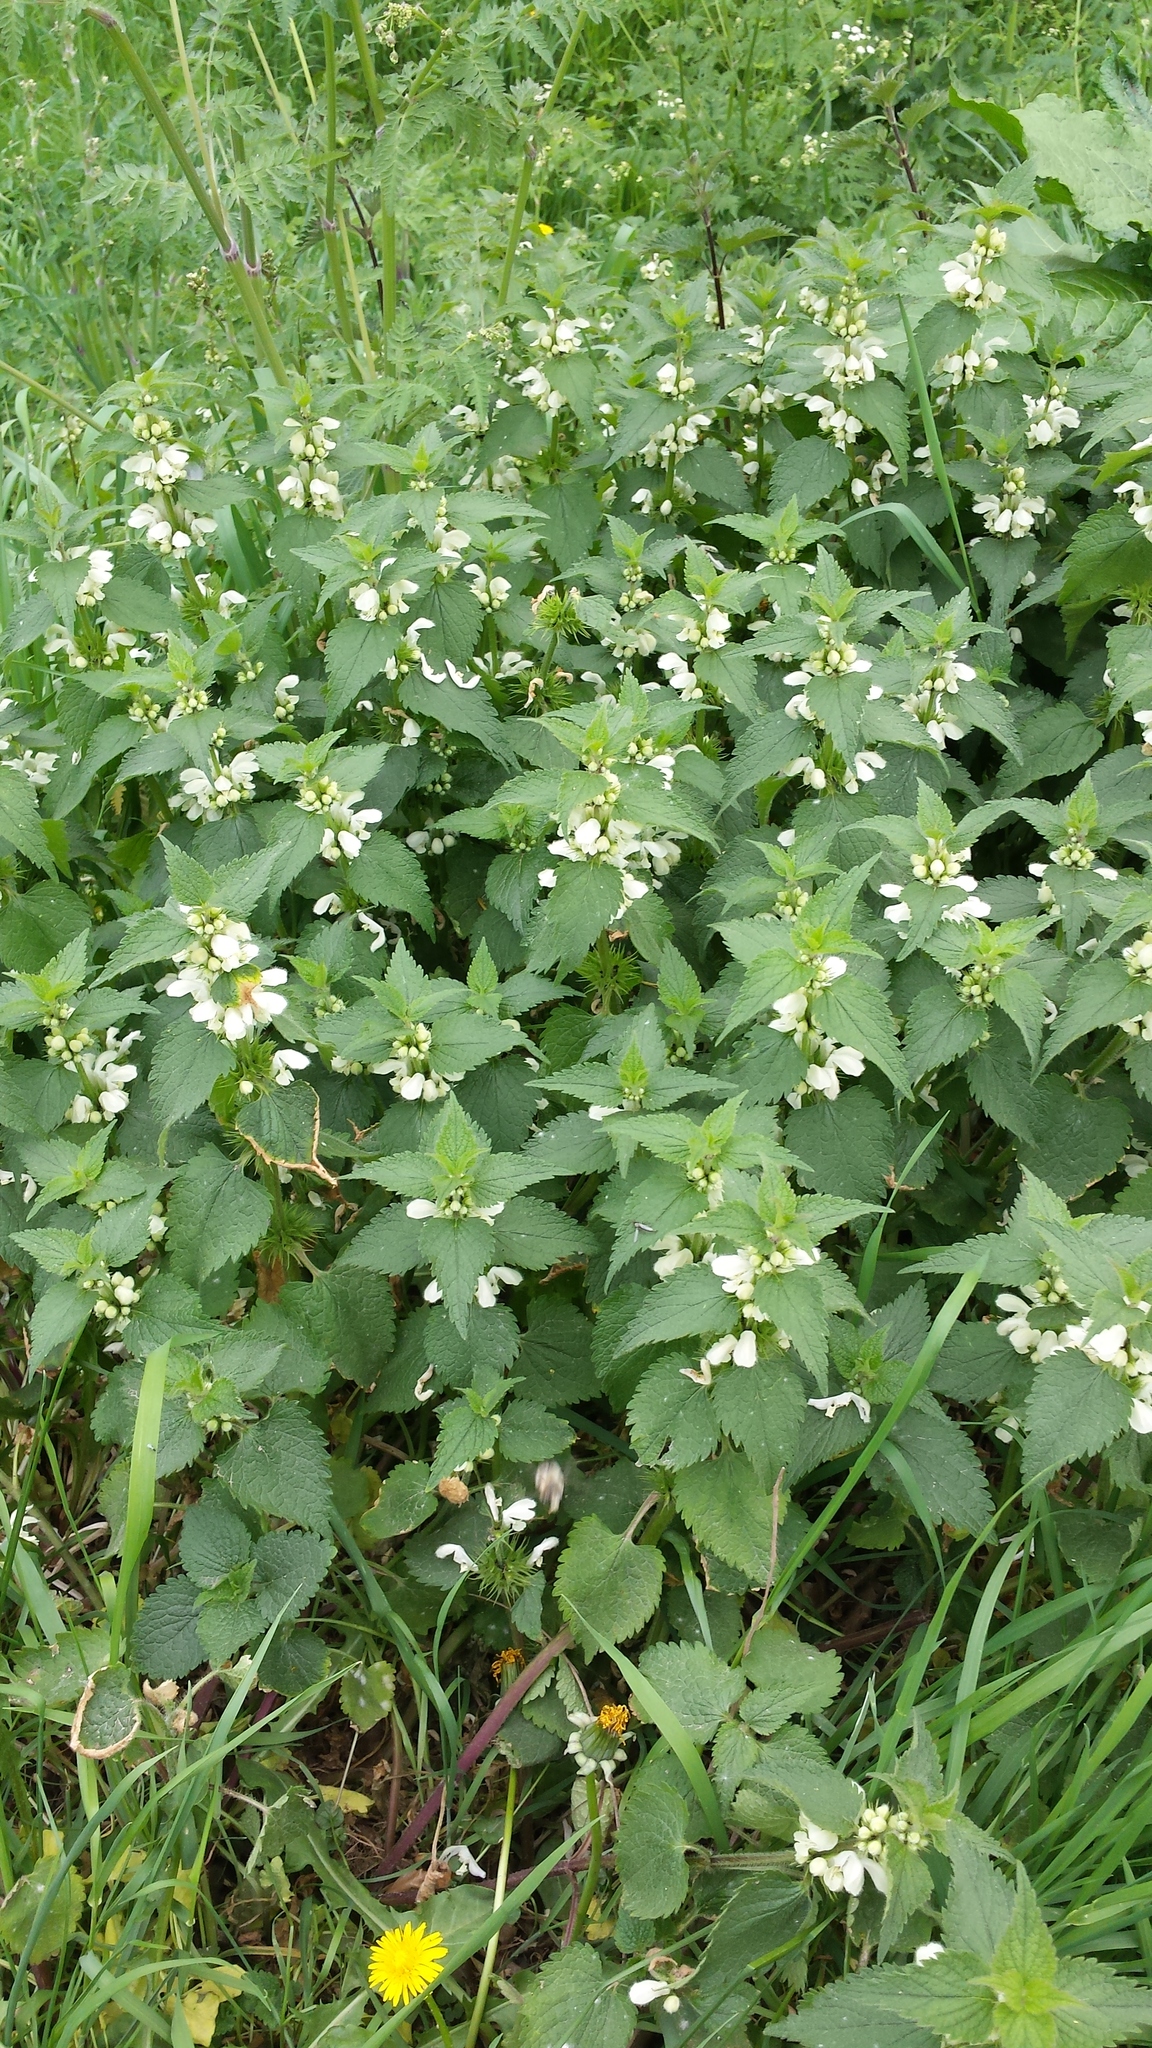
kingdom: Plantae
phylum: Tracheophyta
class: Magnoliopsida
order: Lamiales
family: Lamiaceae
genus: Lamium
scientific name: Lamium album
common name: White dead-nettle
